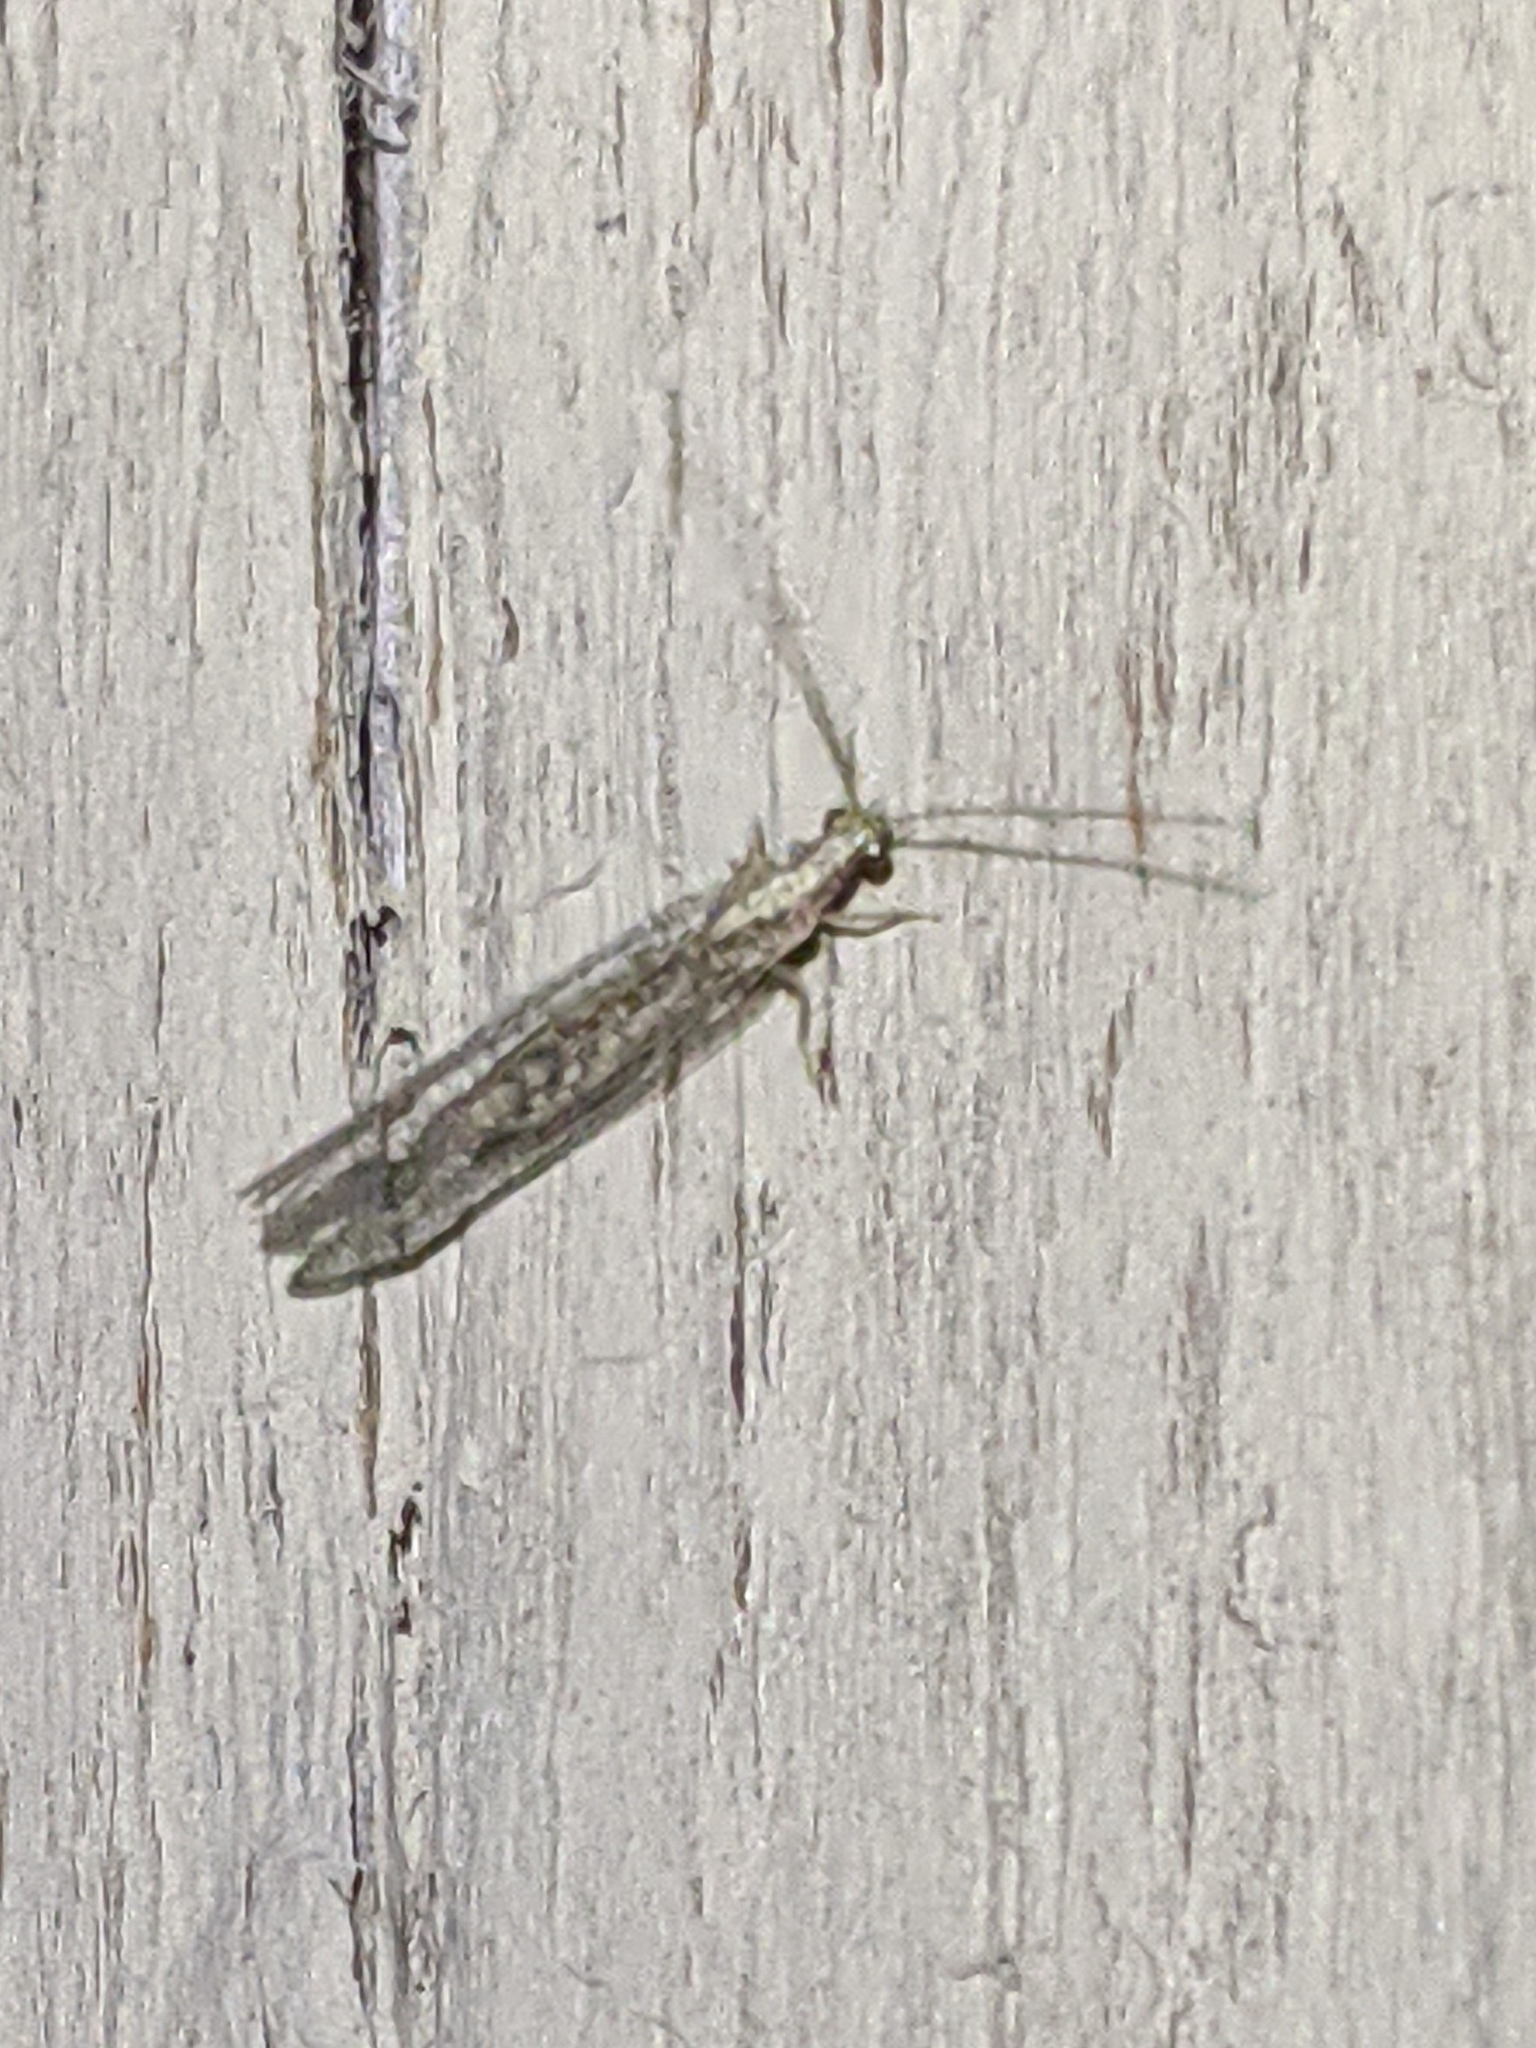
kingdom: Animalia
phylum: Arthropoda
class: Insecta
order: Neuroptera
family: Chrysopidae
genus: Eremochrysa
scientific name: Eremochrysa
